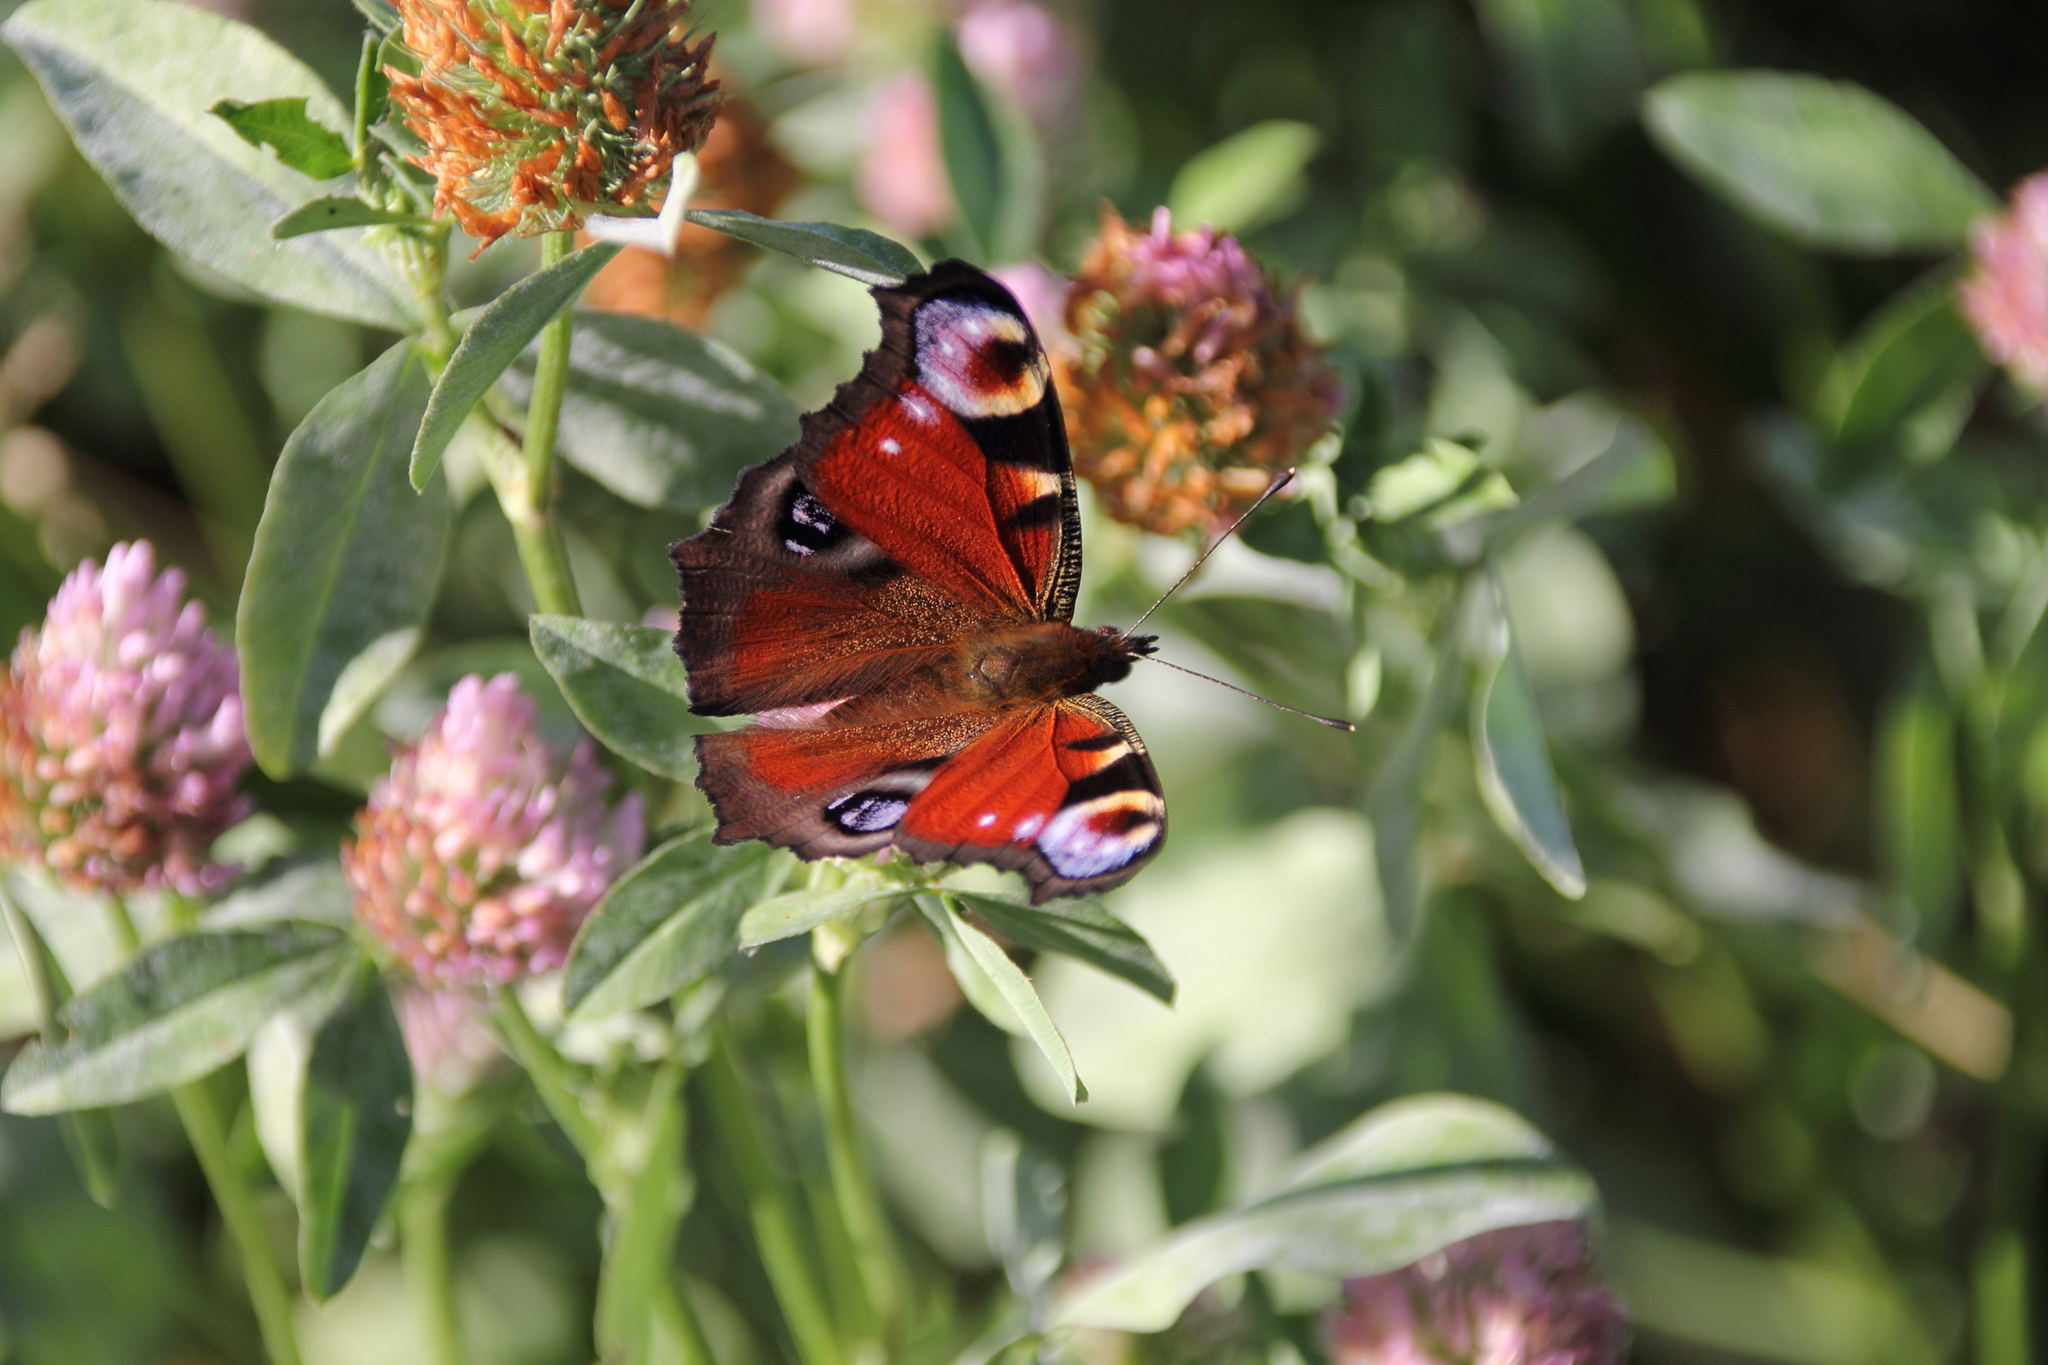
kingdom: Animalia
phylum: Arthropoda
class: Insecta
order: Lepidoptera
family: Nymphalidae
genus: Aglais
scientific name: Aglais io
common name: Peacock
